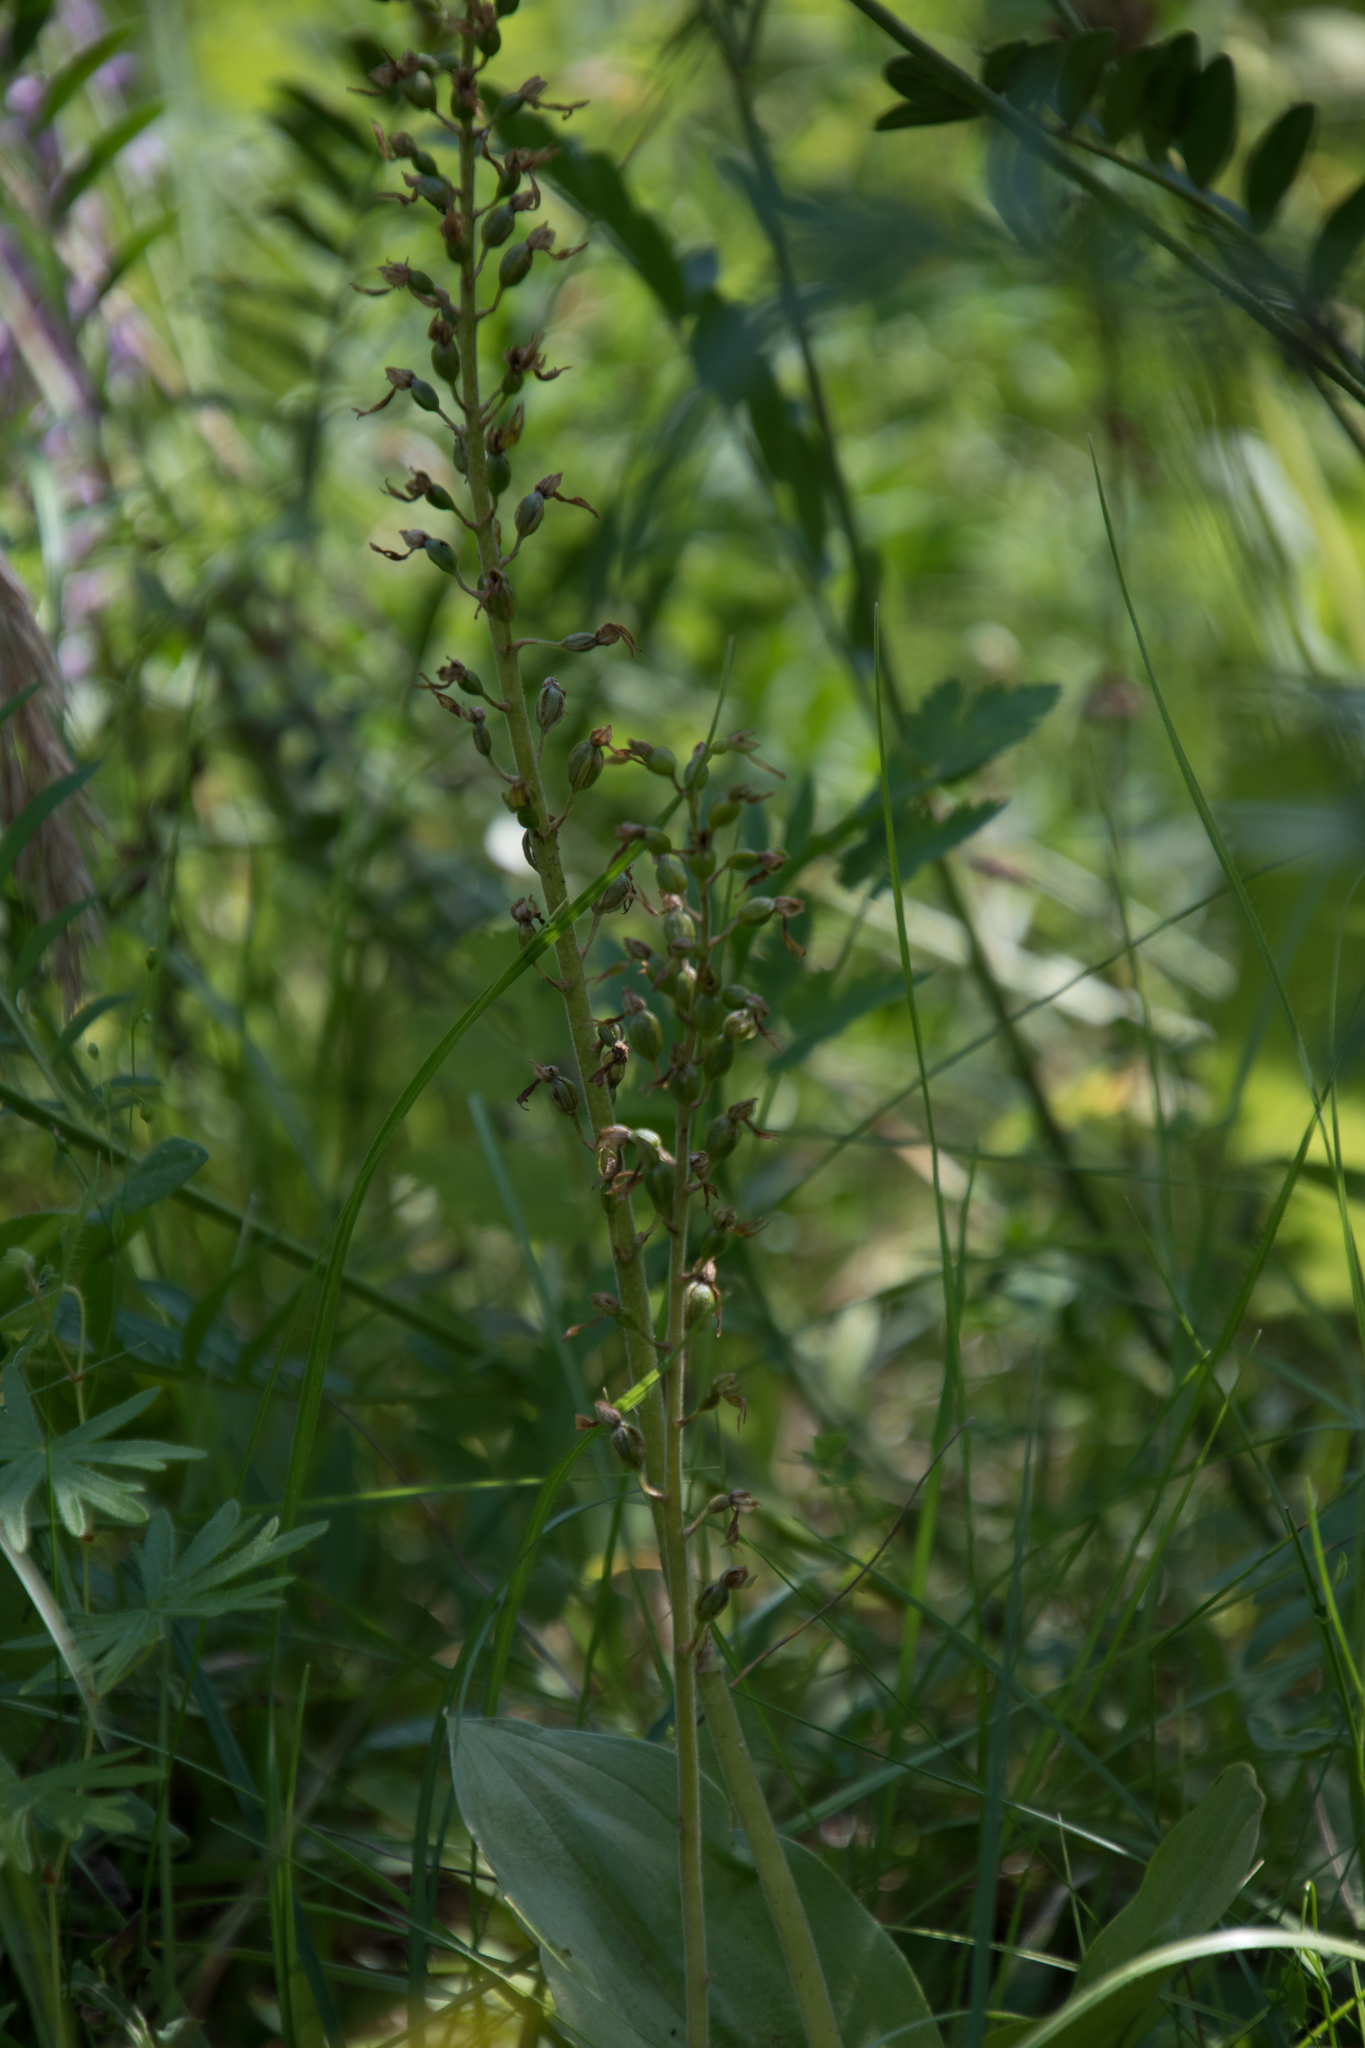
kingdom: Plantae
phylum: Tracheophyta
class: Liliopsida
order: Asparagales
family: Orchidaceae
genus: Himantoglossum
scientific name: Himantoglossum hircinum
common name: Lizard orchid
